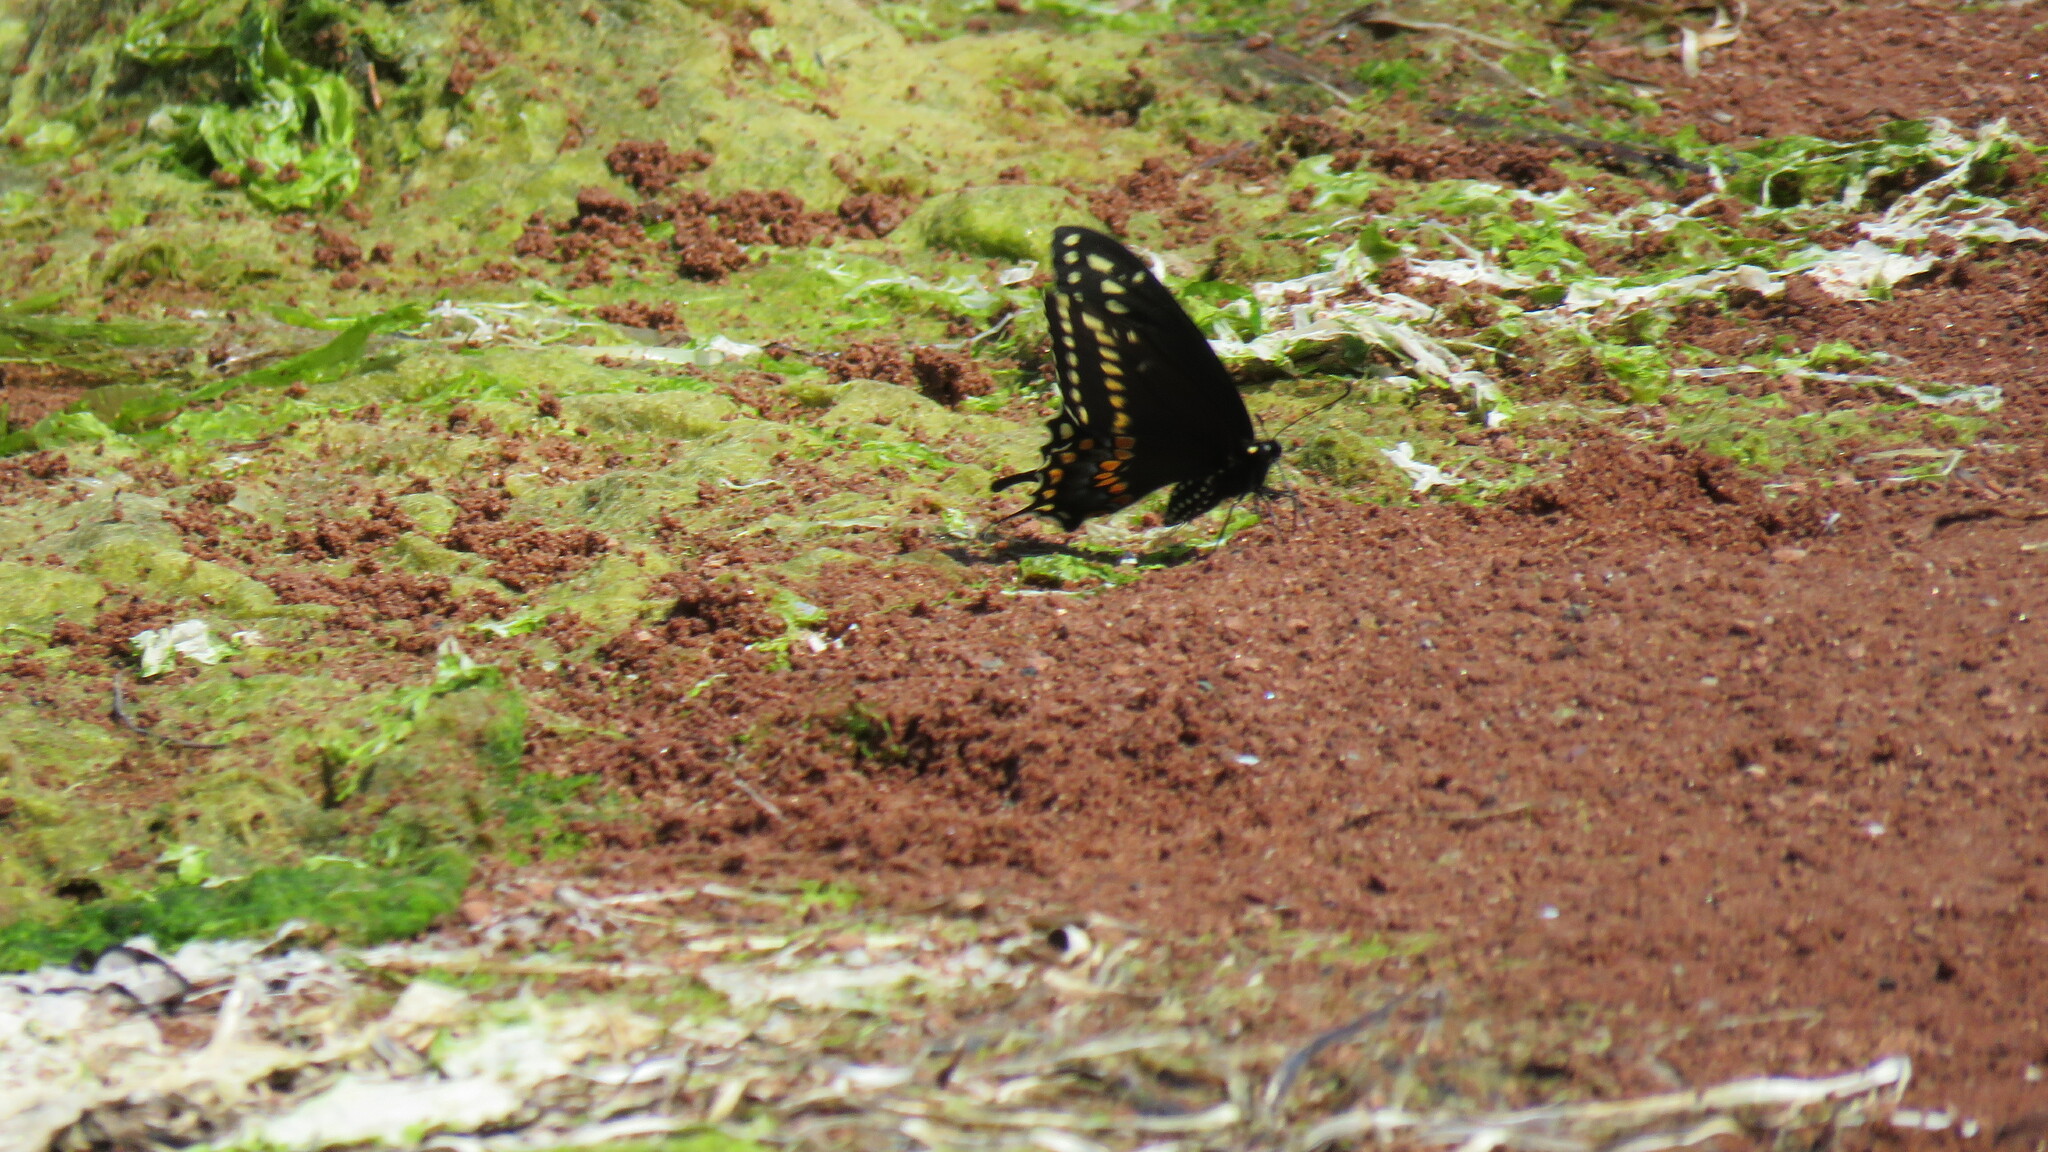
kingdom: Animalia
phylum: Arthropoda
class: Insecta
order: Lepidoptera
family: Papilionidae
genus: Papilio
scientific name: Papilio polyxenes
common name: Black swallowtail
